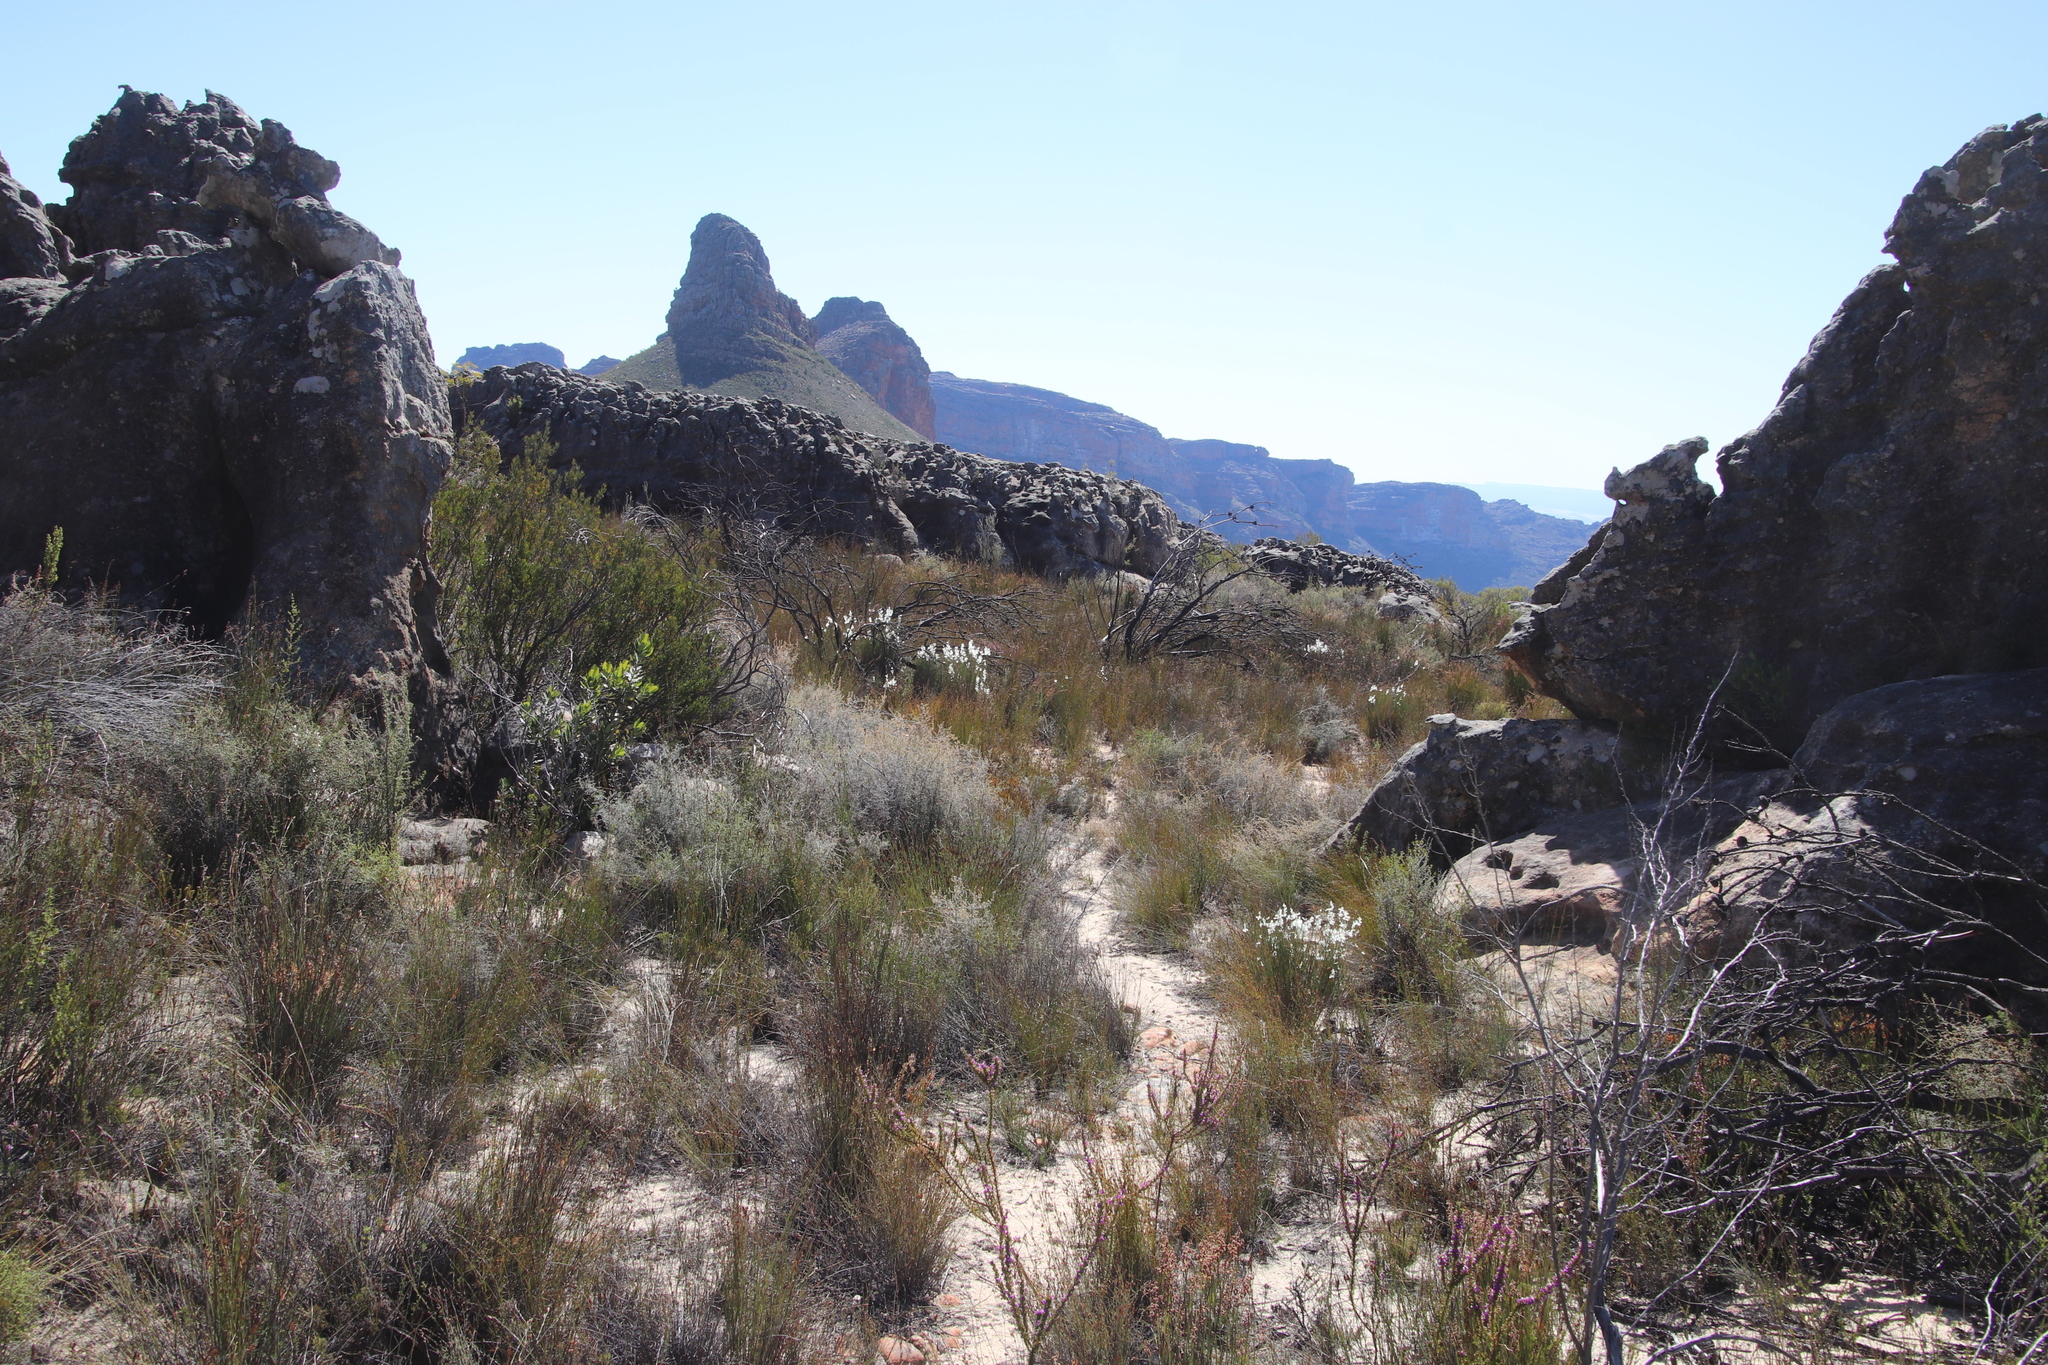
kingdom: Plantae
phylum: Tracheophyta
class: Magnoliopsida
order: Brassicales
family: Brassicaceae
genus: Heliophila
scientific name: Heliophila juncea
